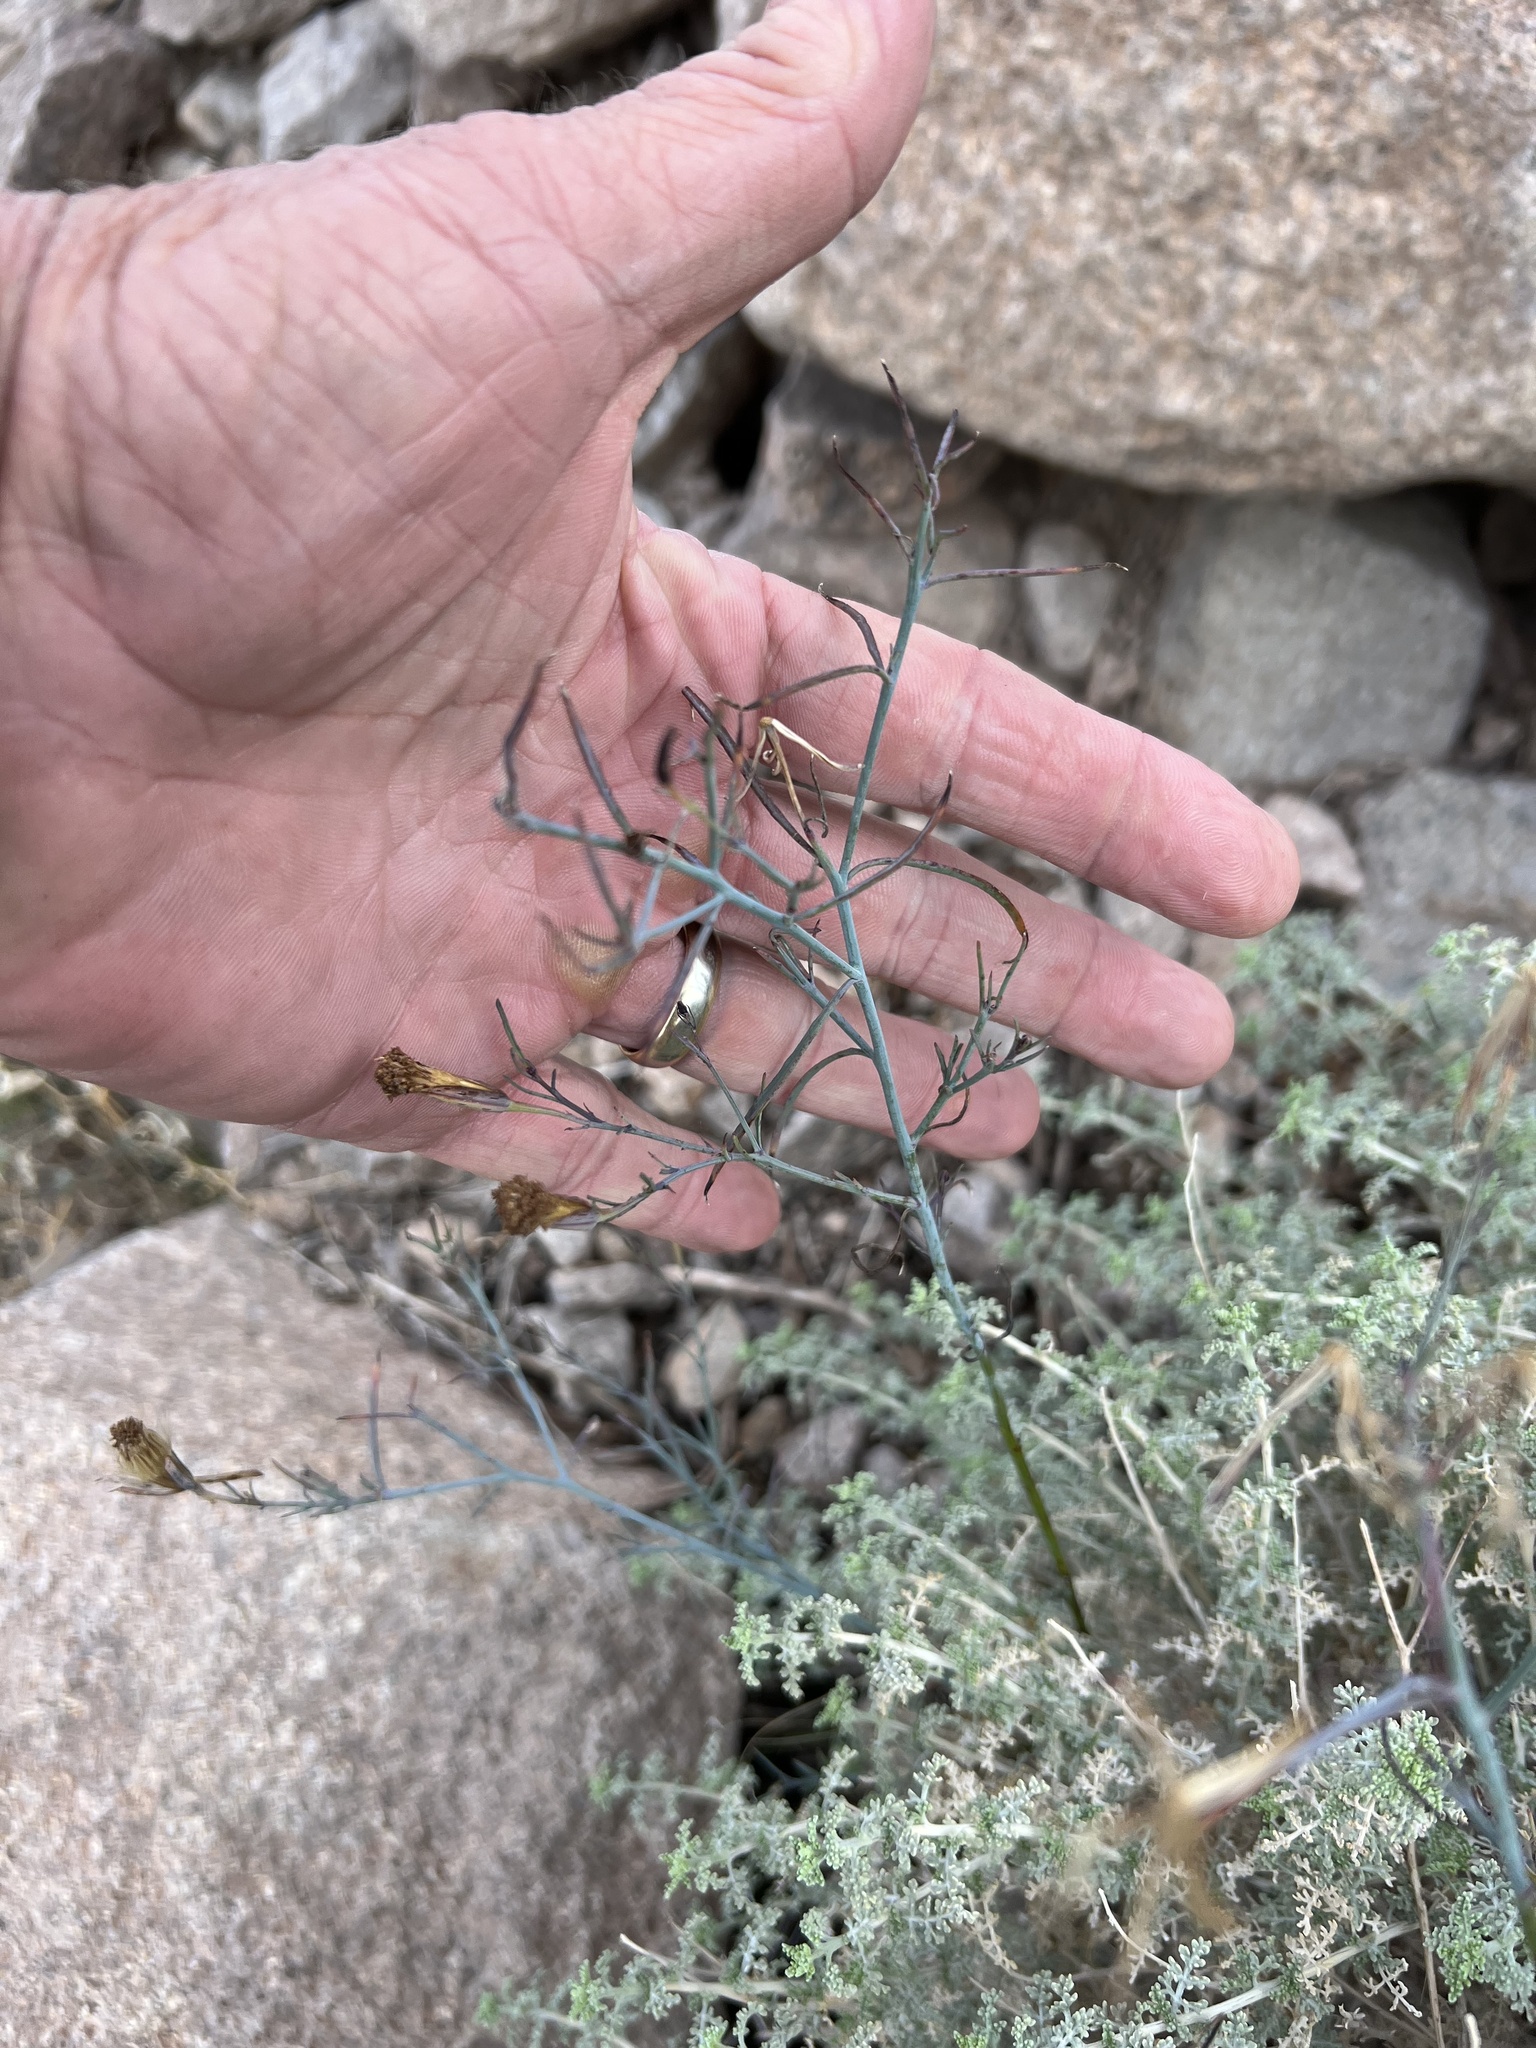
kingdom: Plantae
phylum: Tracheophyta
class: Magnoliopsida
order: Asterales
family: Asteraceae
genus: Porophyllum
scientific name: Porophyllum gracile
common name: Odora
